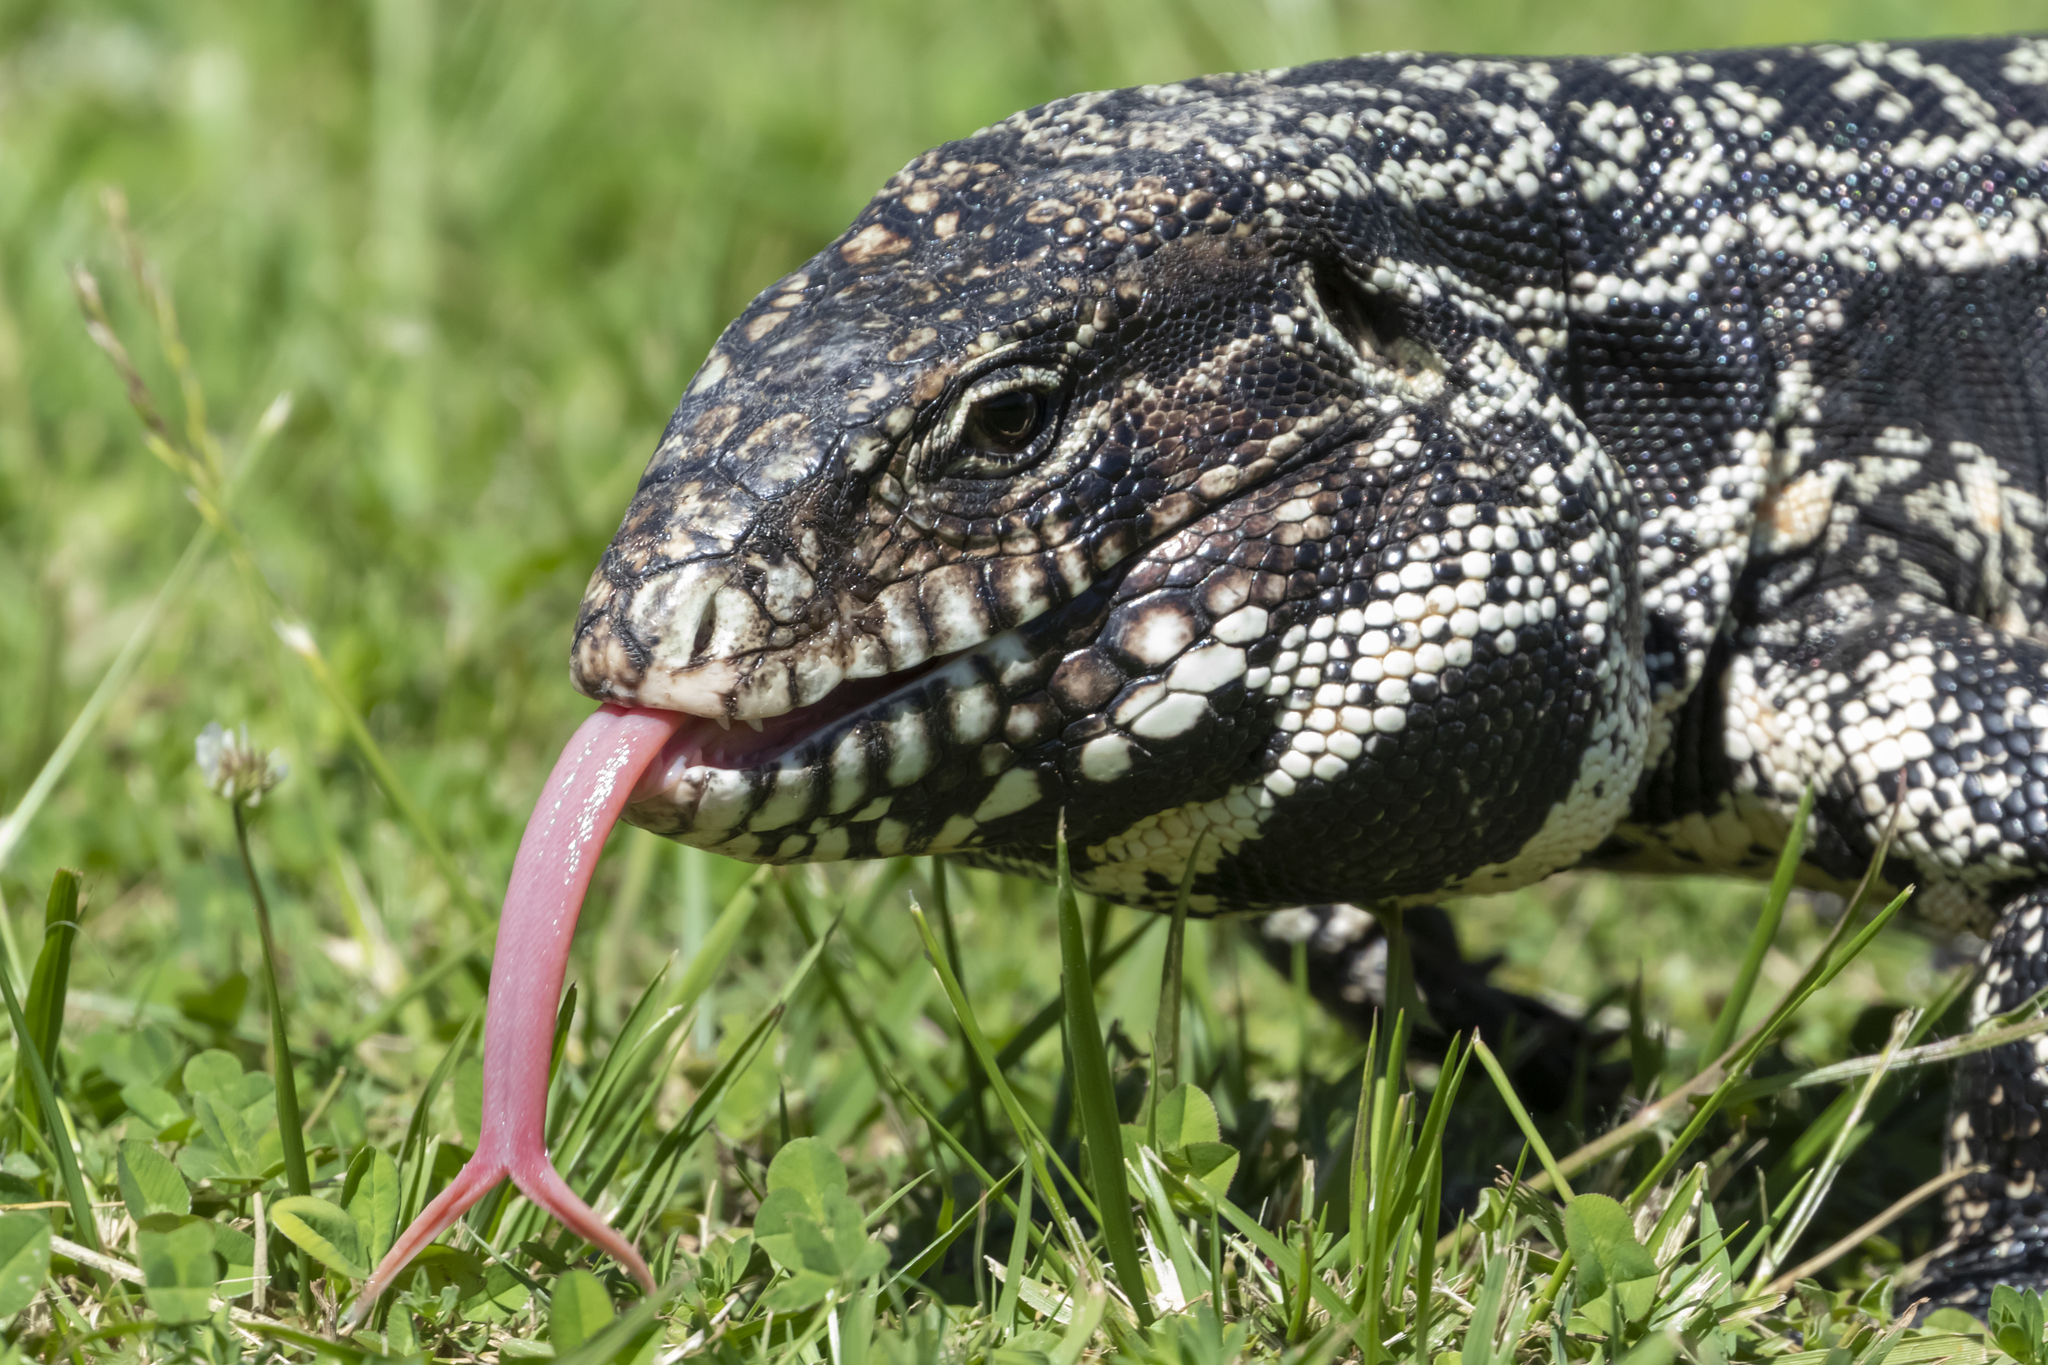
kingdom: Animalia
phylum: Chordata
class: Squamata
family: Teiidae
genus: Salvator
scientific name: Salvator merianae
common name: Argentine black and white tegu
